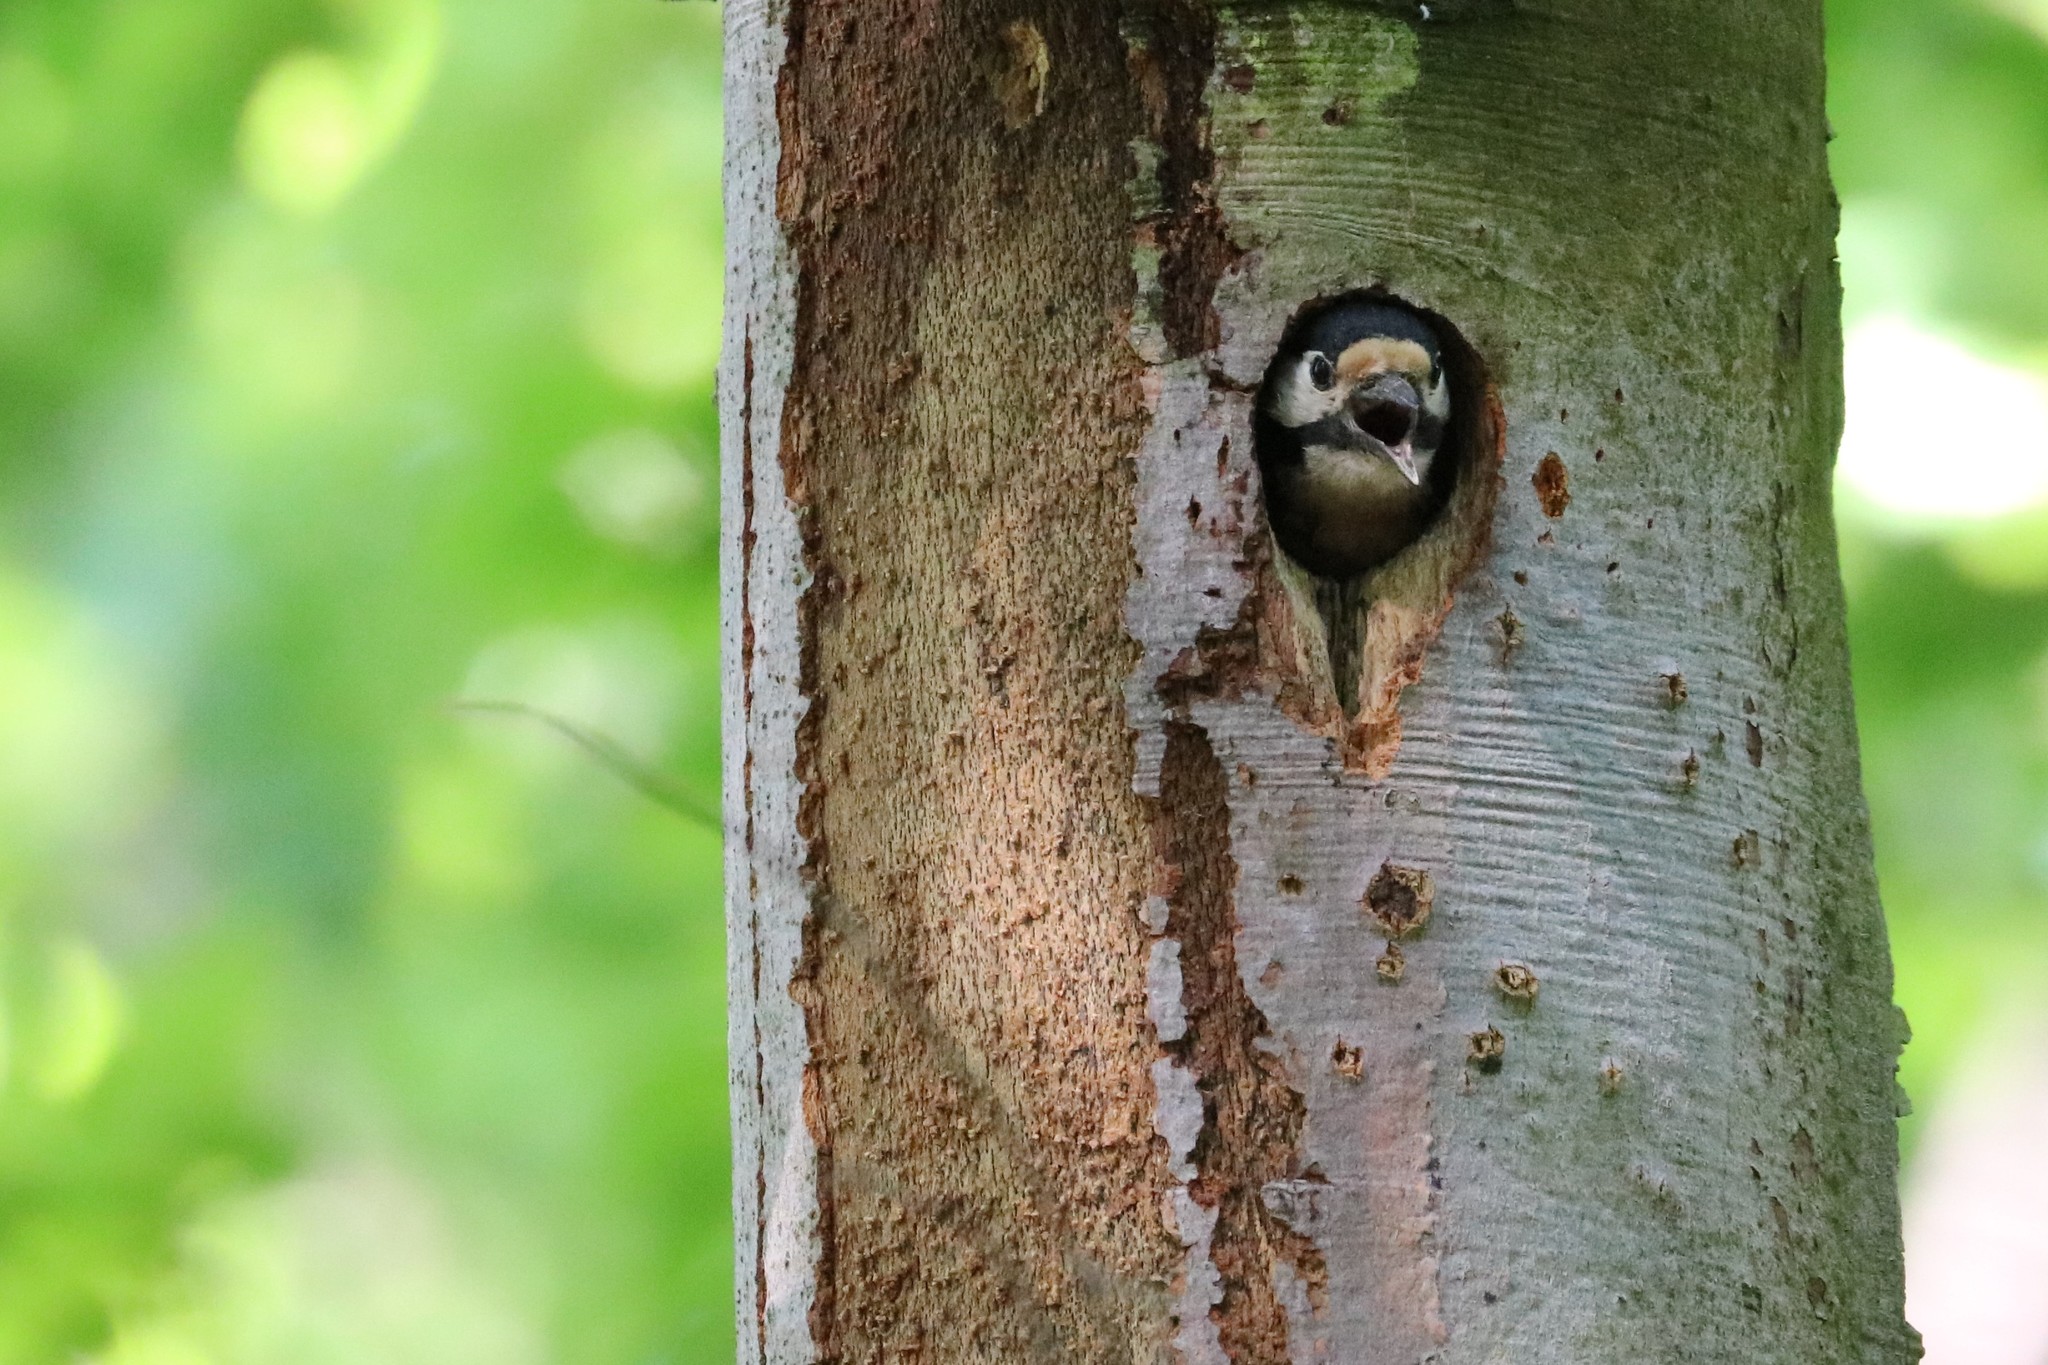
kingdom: Animalia
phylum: Chordata
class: Aves
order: Piciformes
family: Picidae
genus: Dendrocopos
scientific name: Dendrocopos major
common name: Great spotted woodpecker
